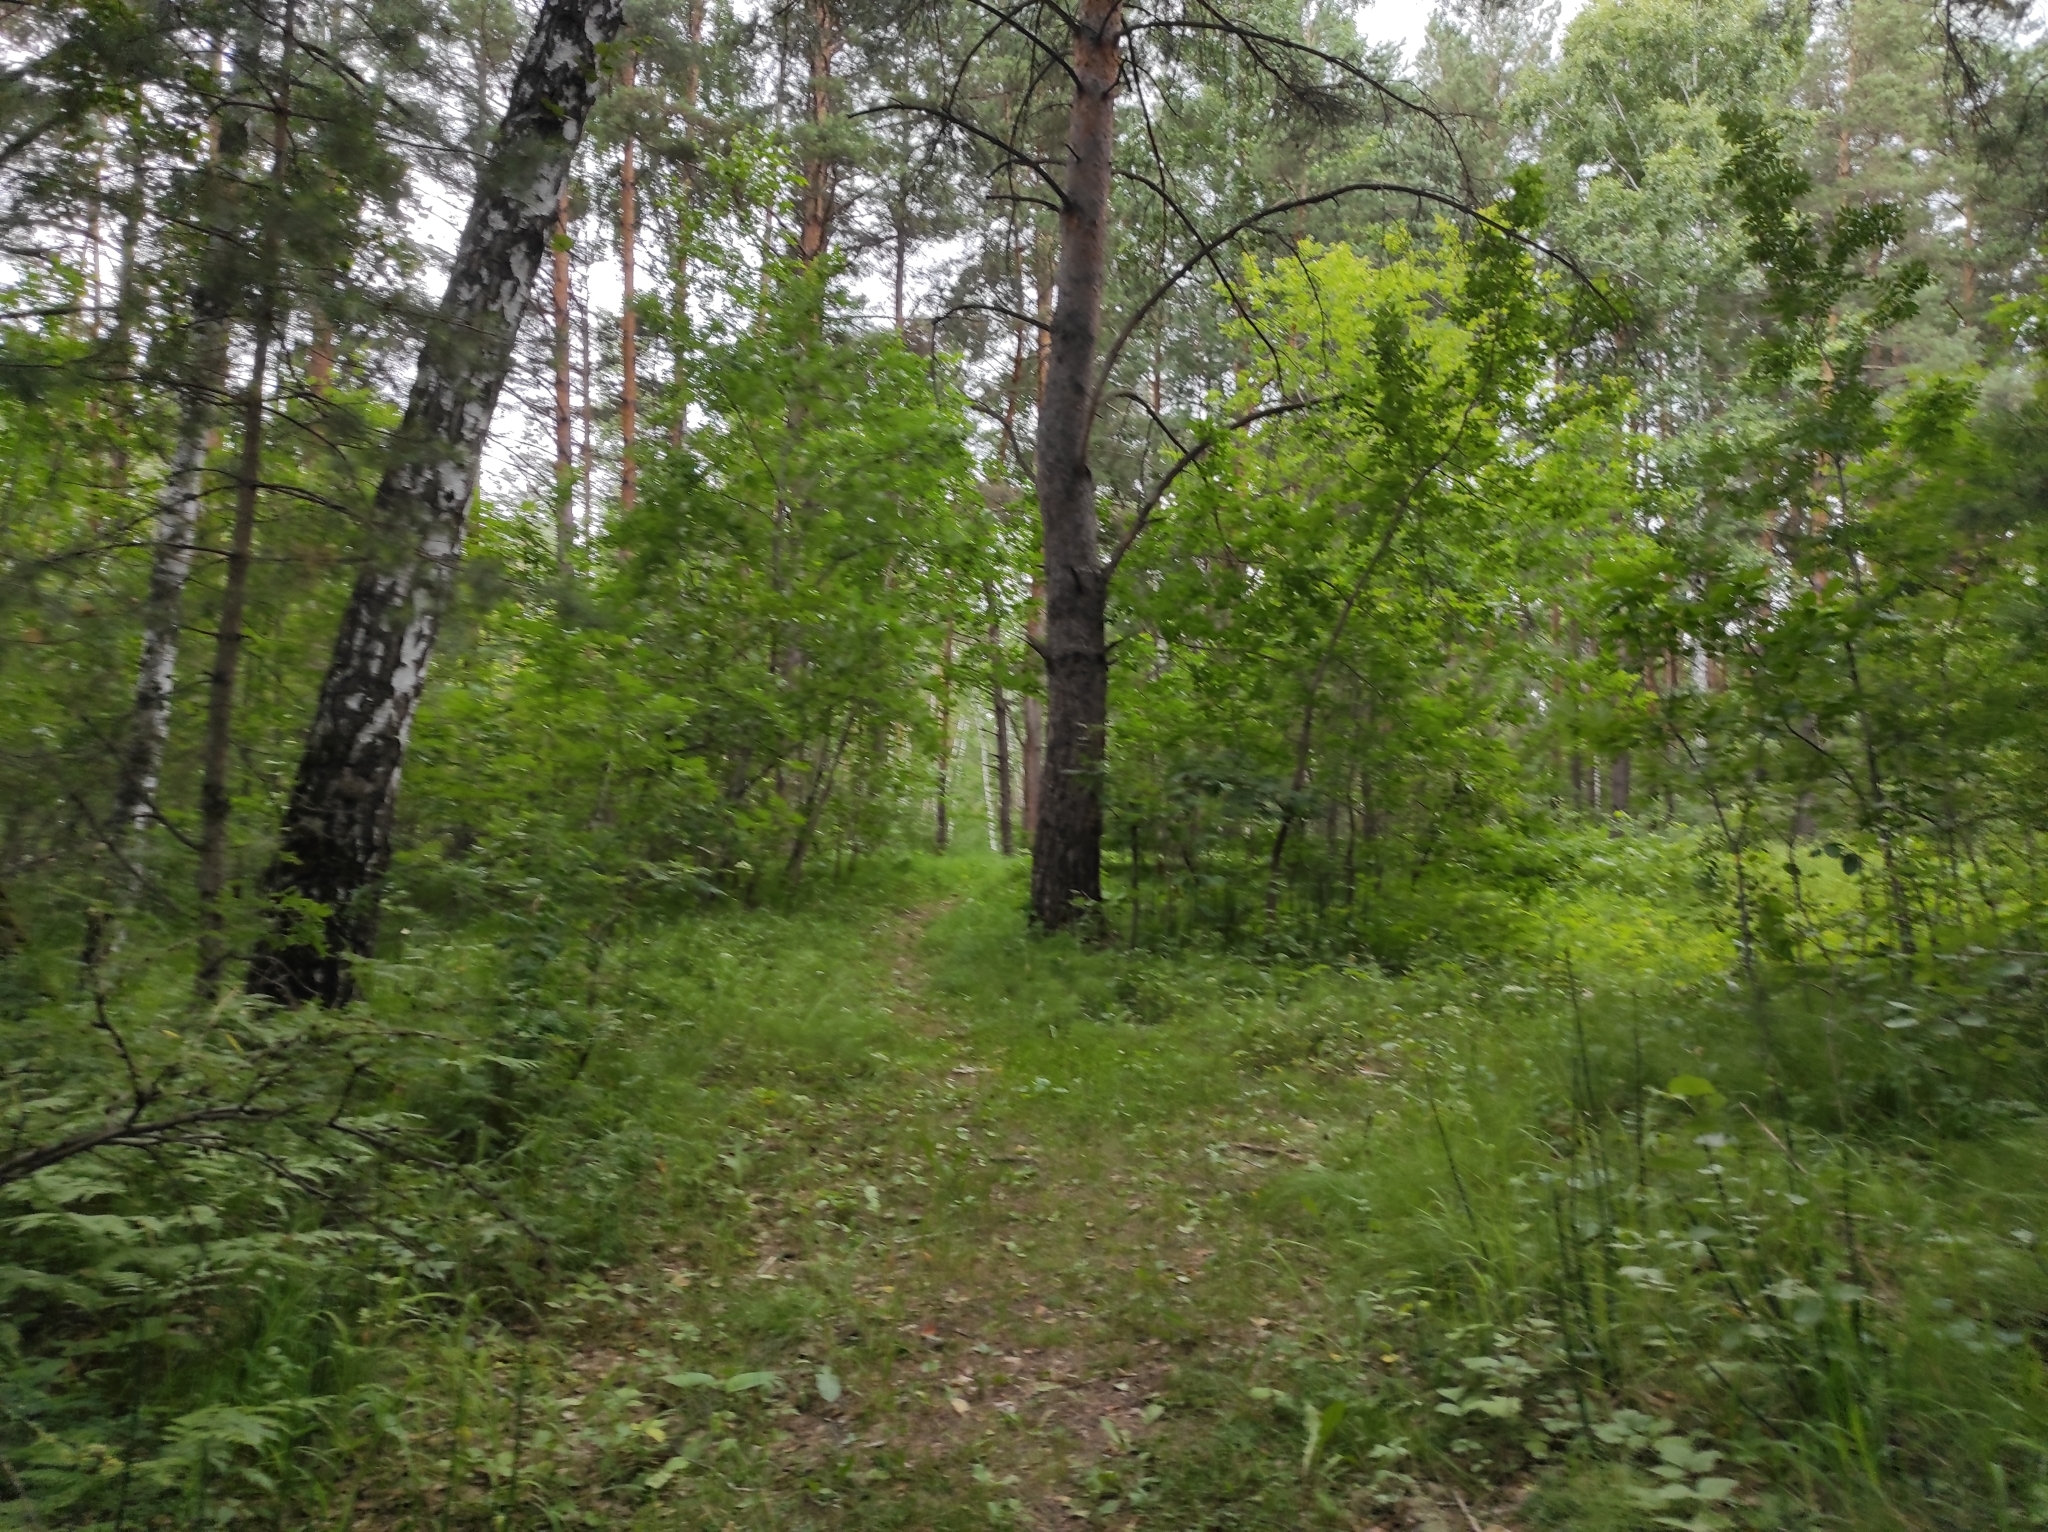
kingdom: Plantae
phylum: Tracheophyta
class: Pinopsida
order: Pinales
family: Pinaceae
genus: Pinus
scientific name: Pinus sylvestris
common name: Scots pine
